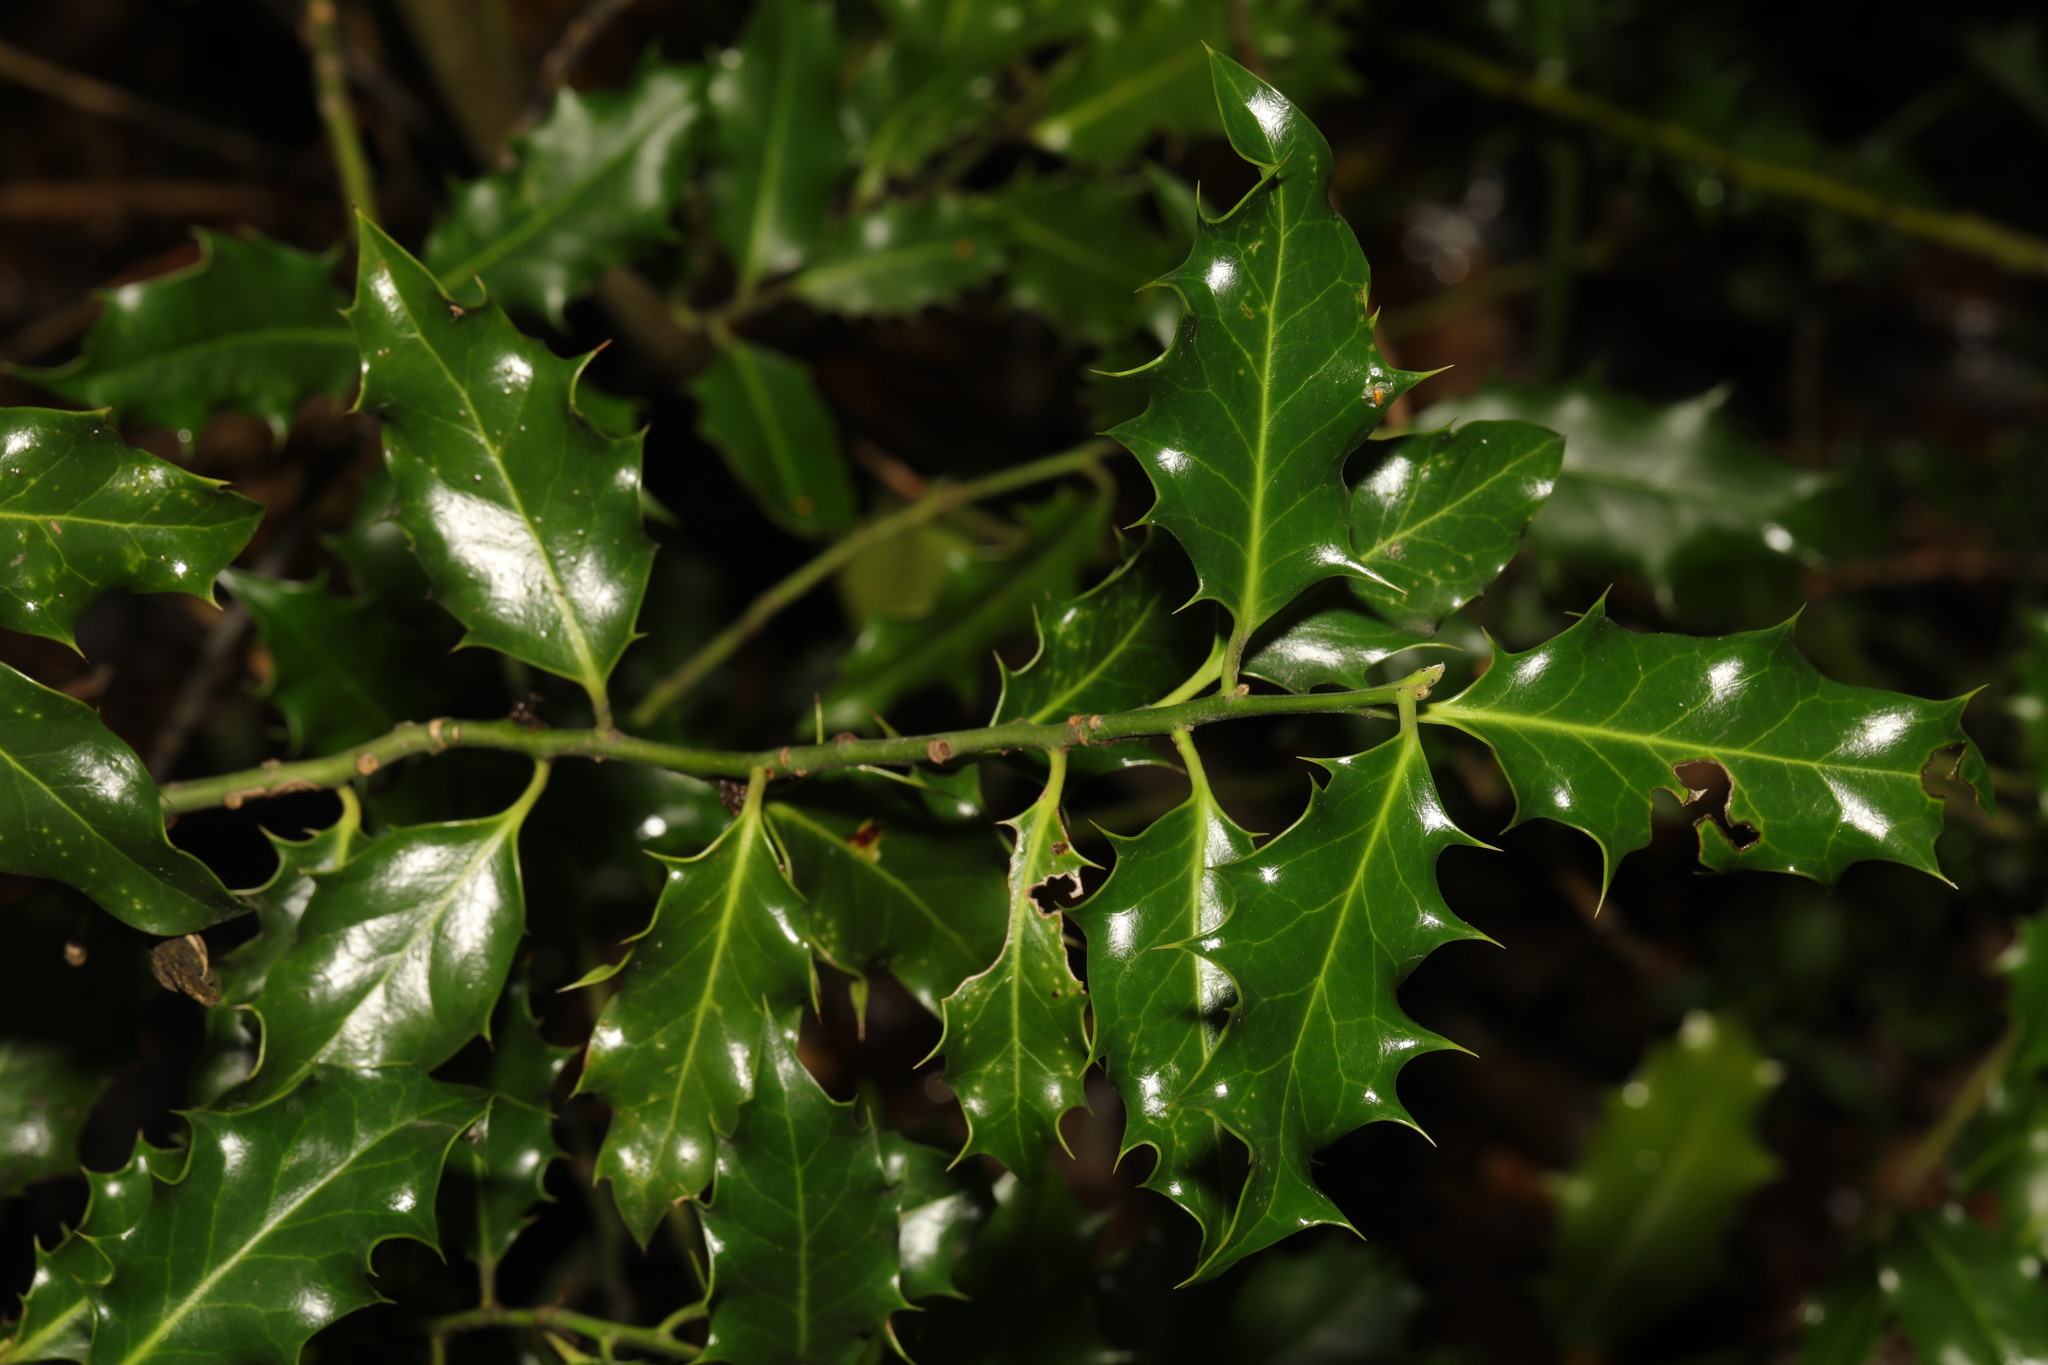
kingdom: Plantae
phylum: Tracheophyta
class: Magnoliopsida
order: Aquifoliales
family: Aquifoliaceae
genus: Ilex
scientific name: Ilex aquifolium
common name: English holly
